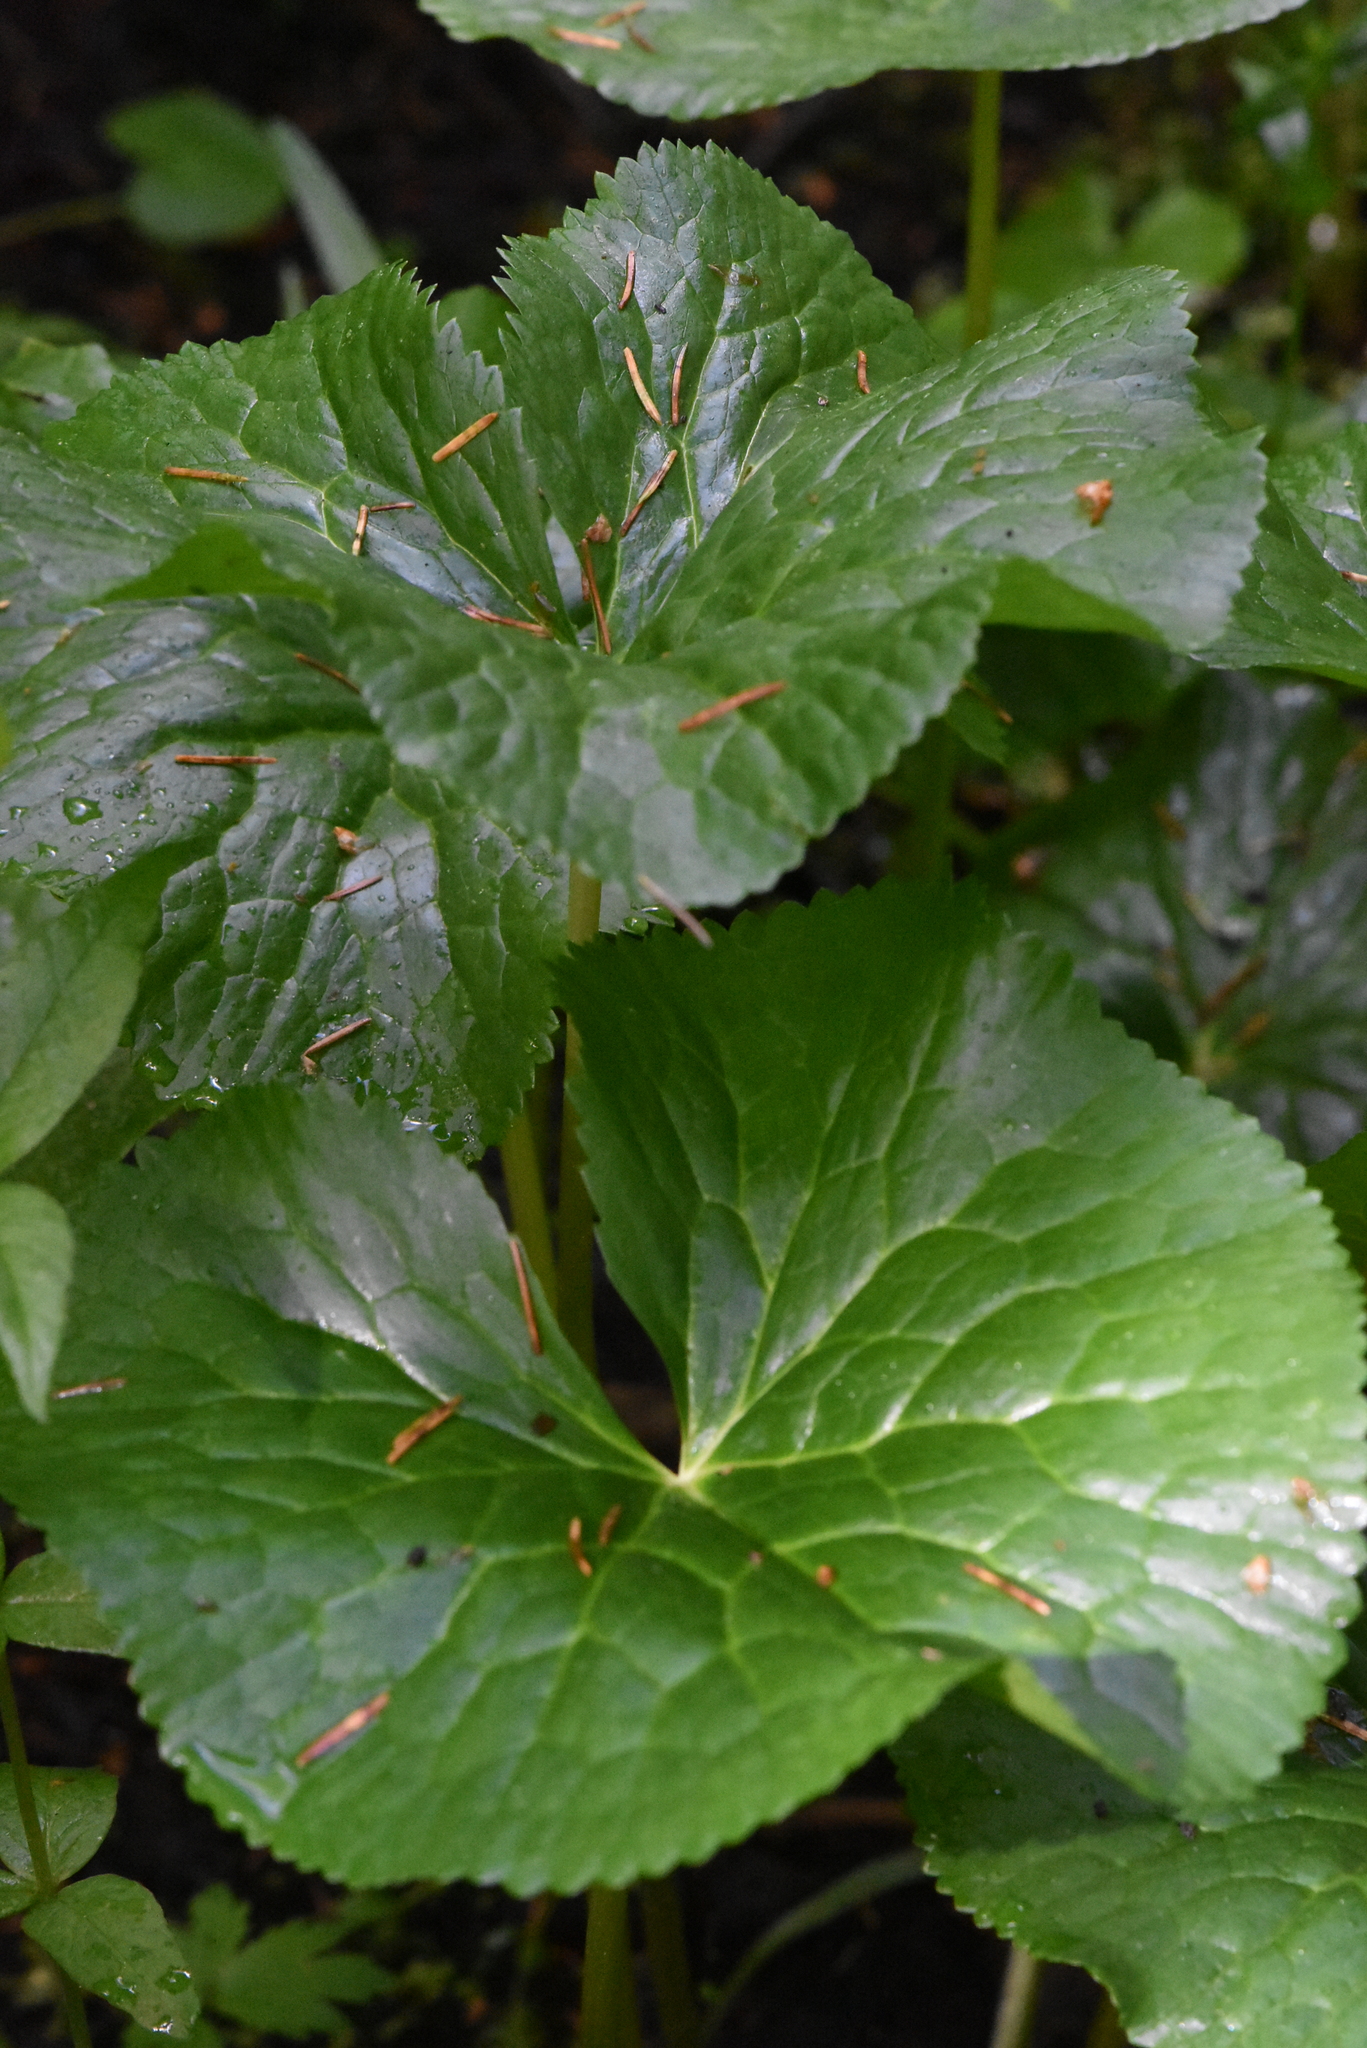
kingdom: Plantae
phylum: Tracheophyta
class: Magnoliopsida
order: Ranunculales
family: Ranunculaceae
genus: Caltha
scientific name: Caltha palustris
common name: Marsh marigold
